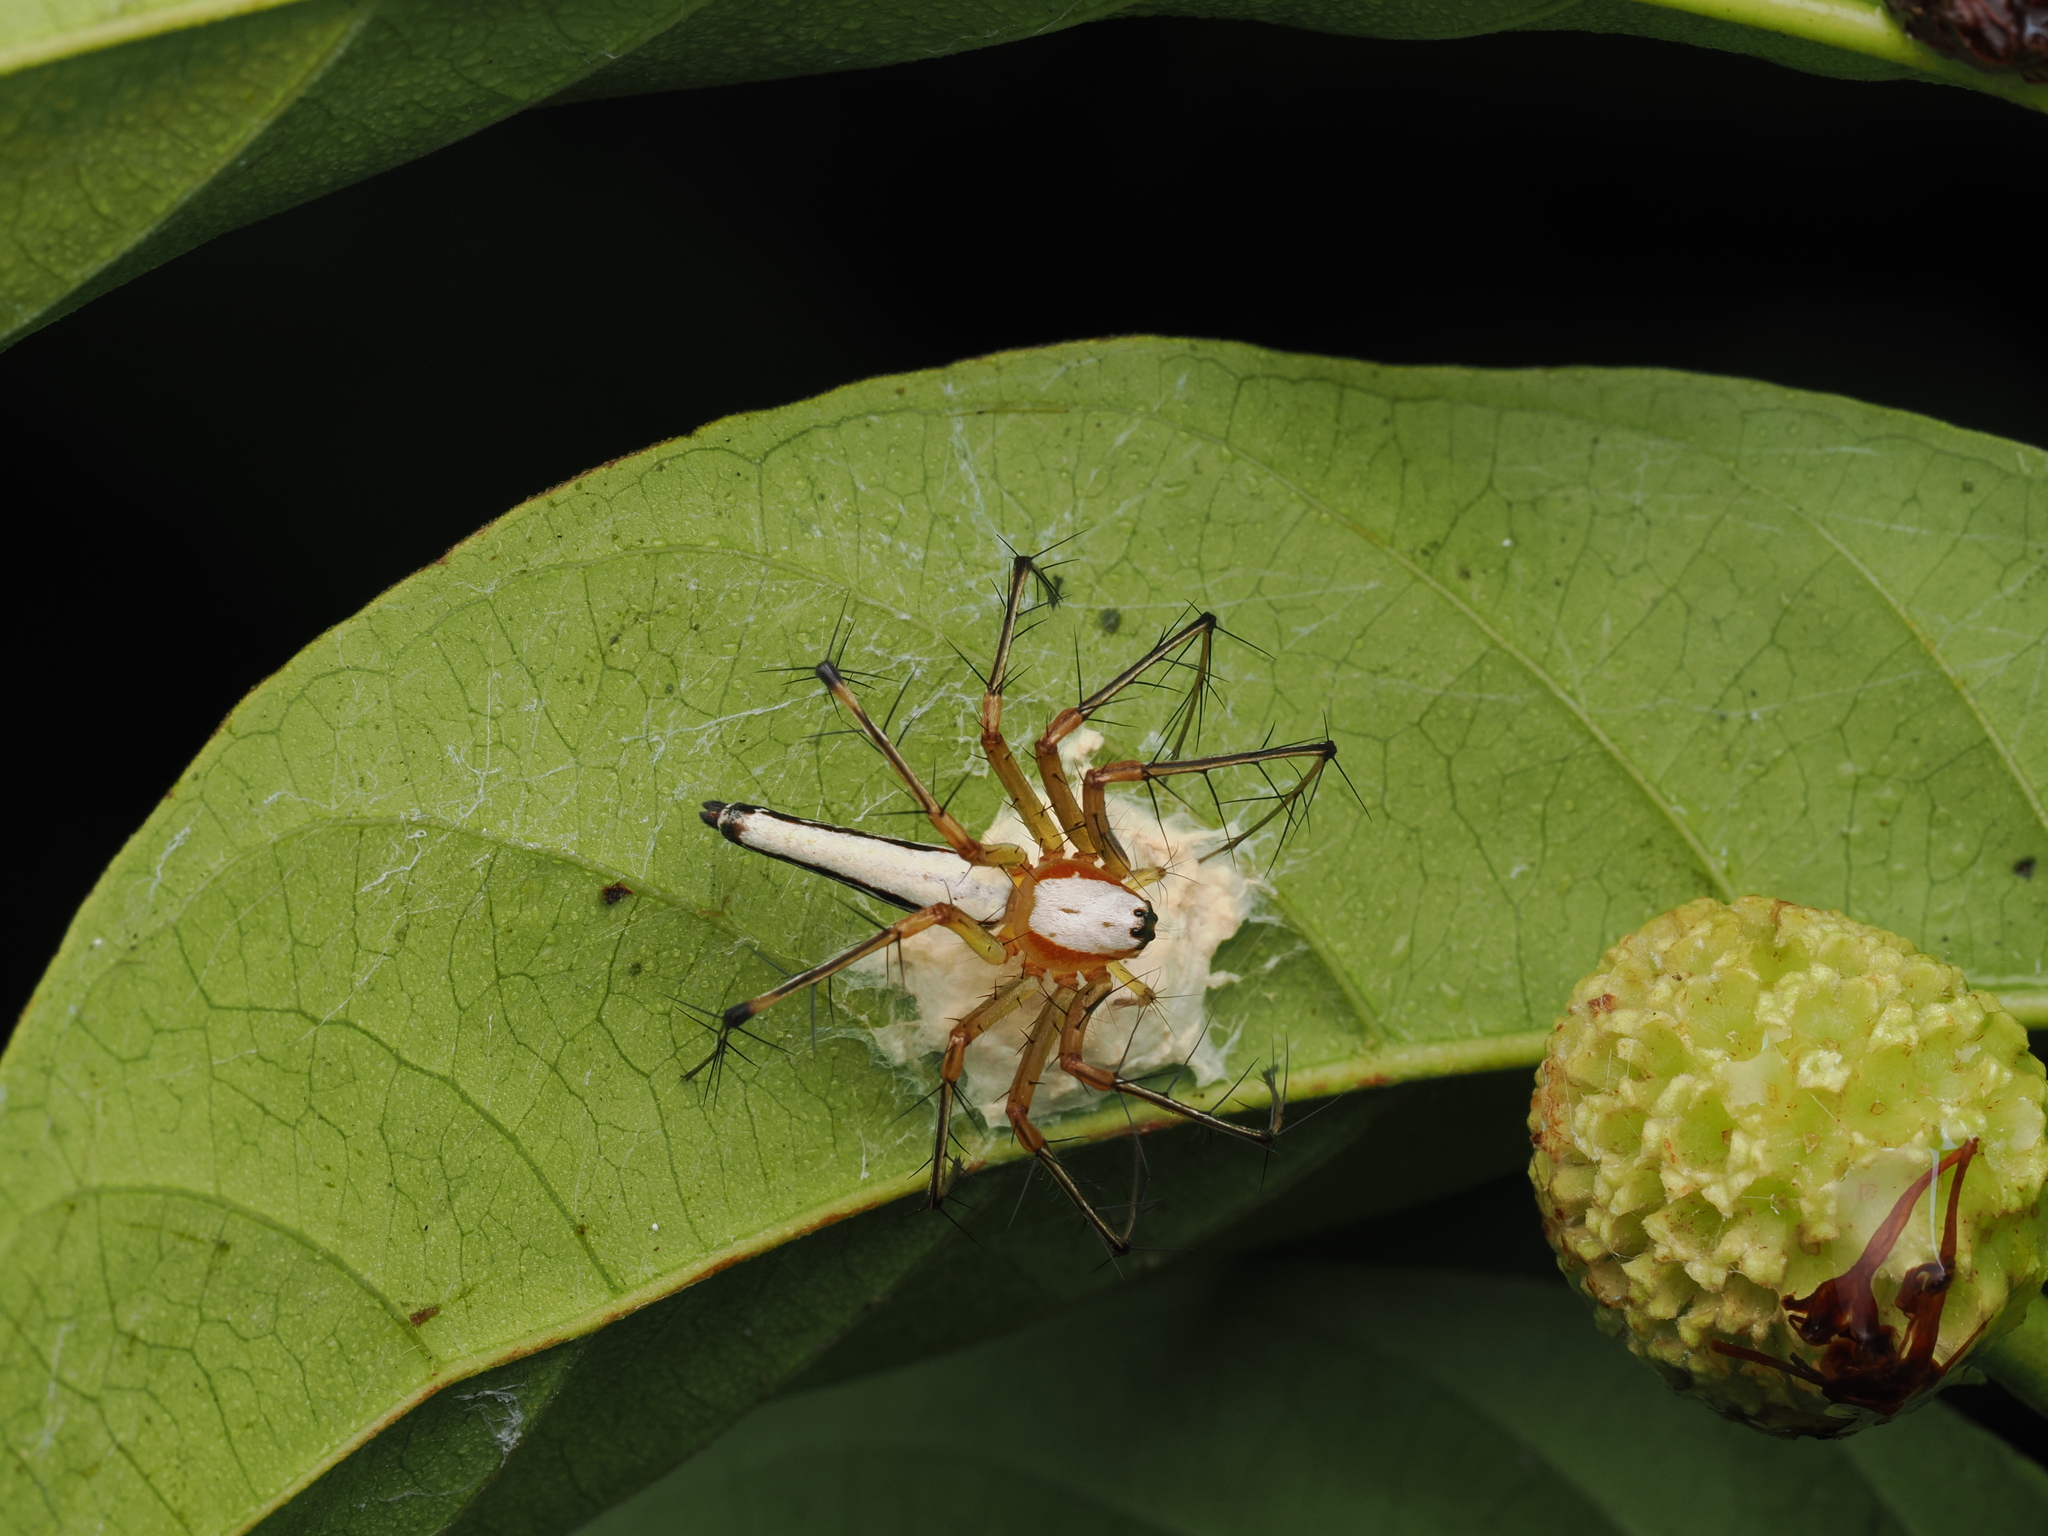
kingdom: Animalia
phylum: Arthropoda
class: Arachnida
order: Araneae
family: Oxyopidae
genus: Oxyopes
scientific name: Oxyopes shweta
